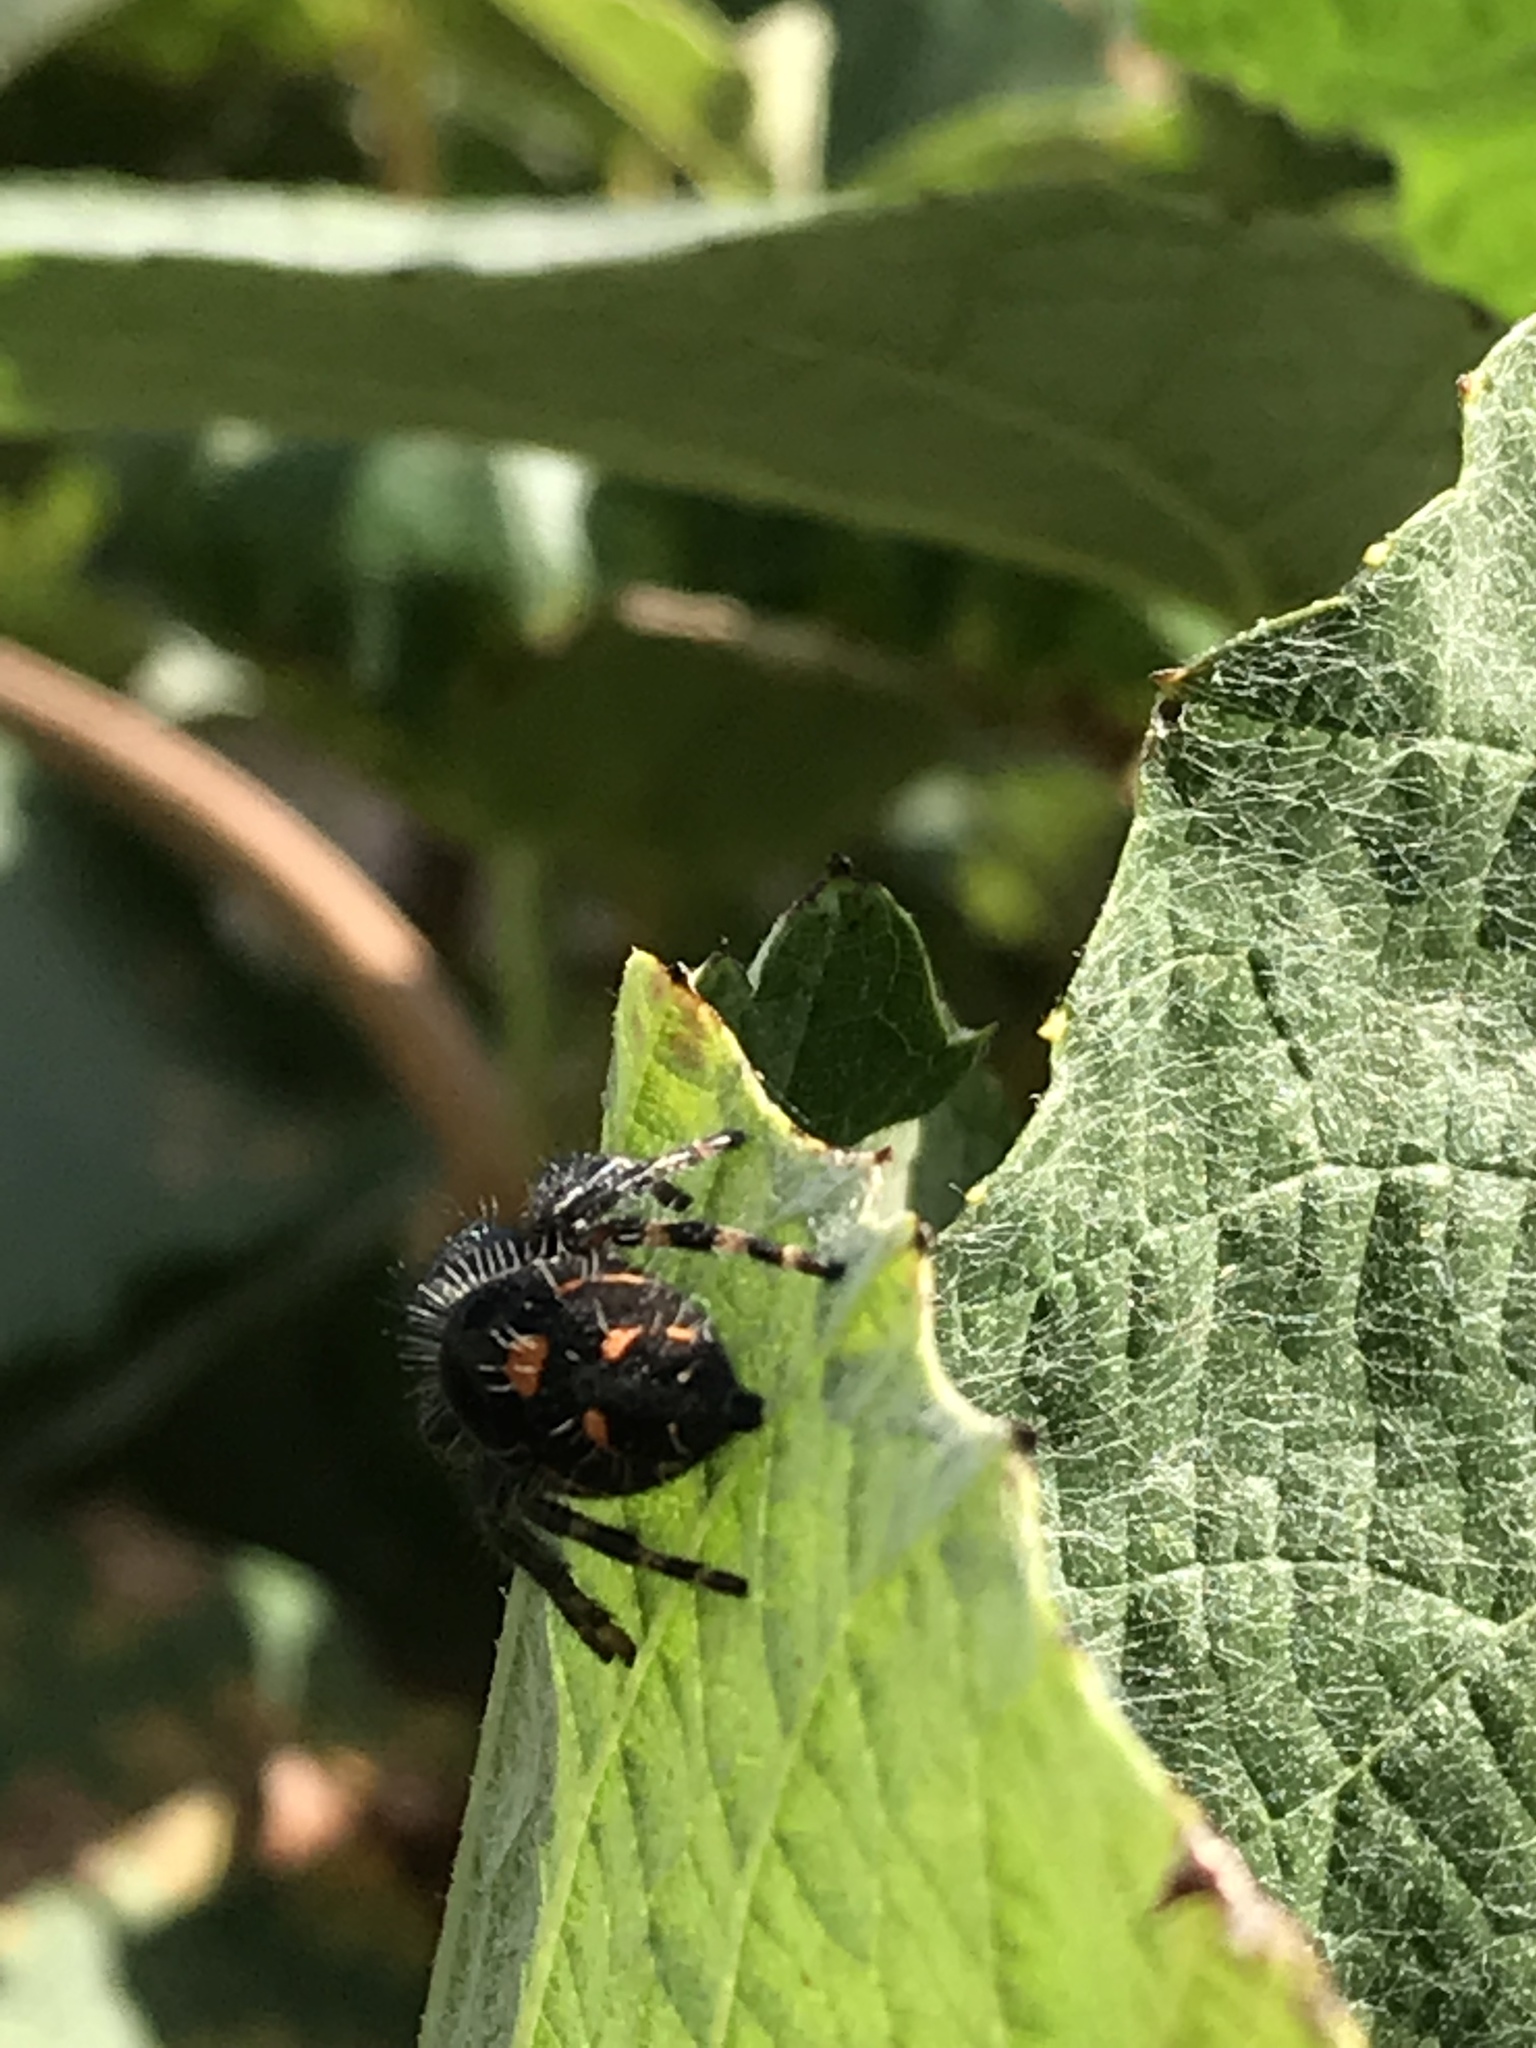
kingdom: Animalia
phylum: Arthropoda
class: Arachnida
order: Araneae
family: Salticidae
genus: Phidippus
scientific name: Phidippus audax
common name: Bold jumper
